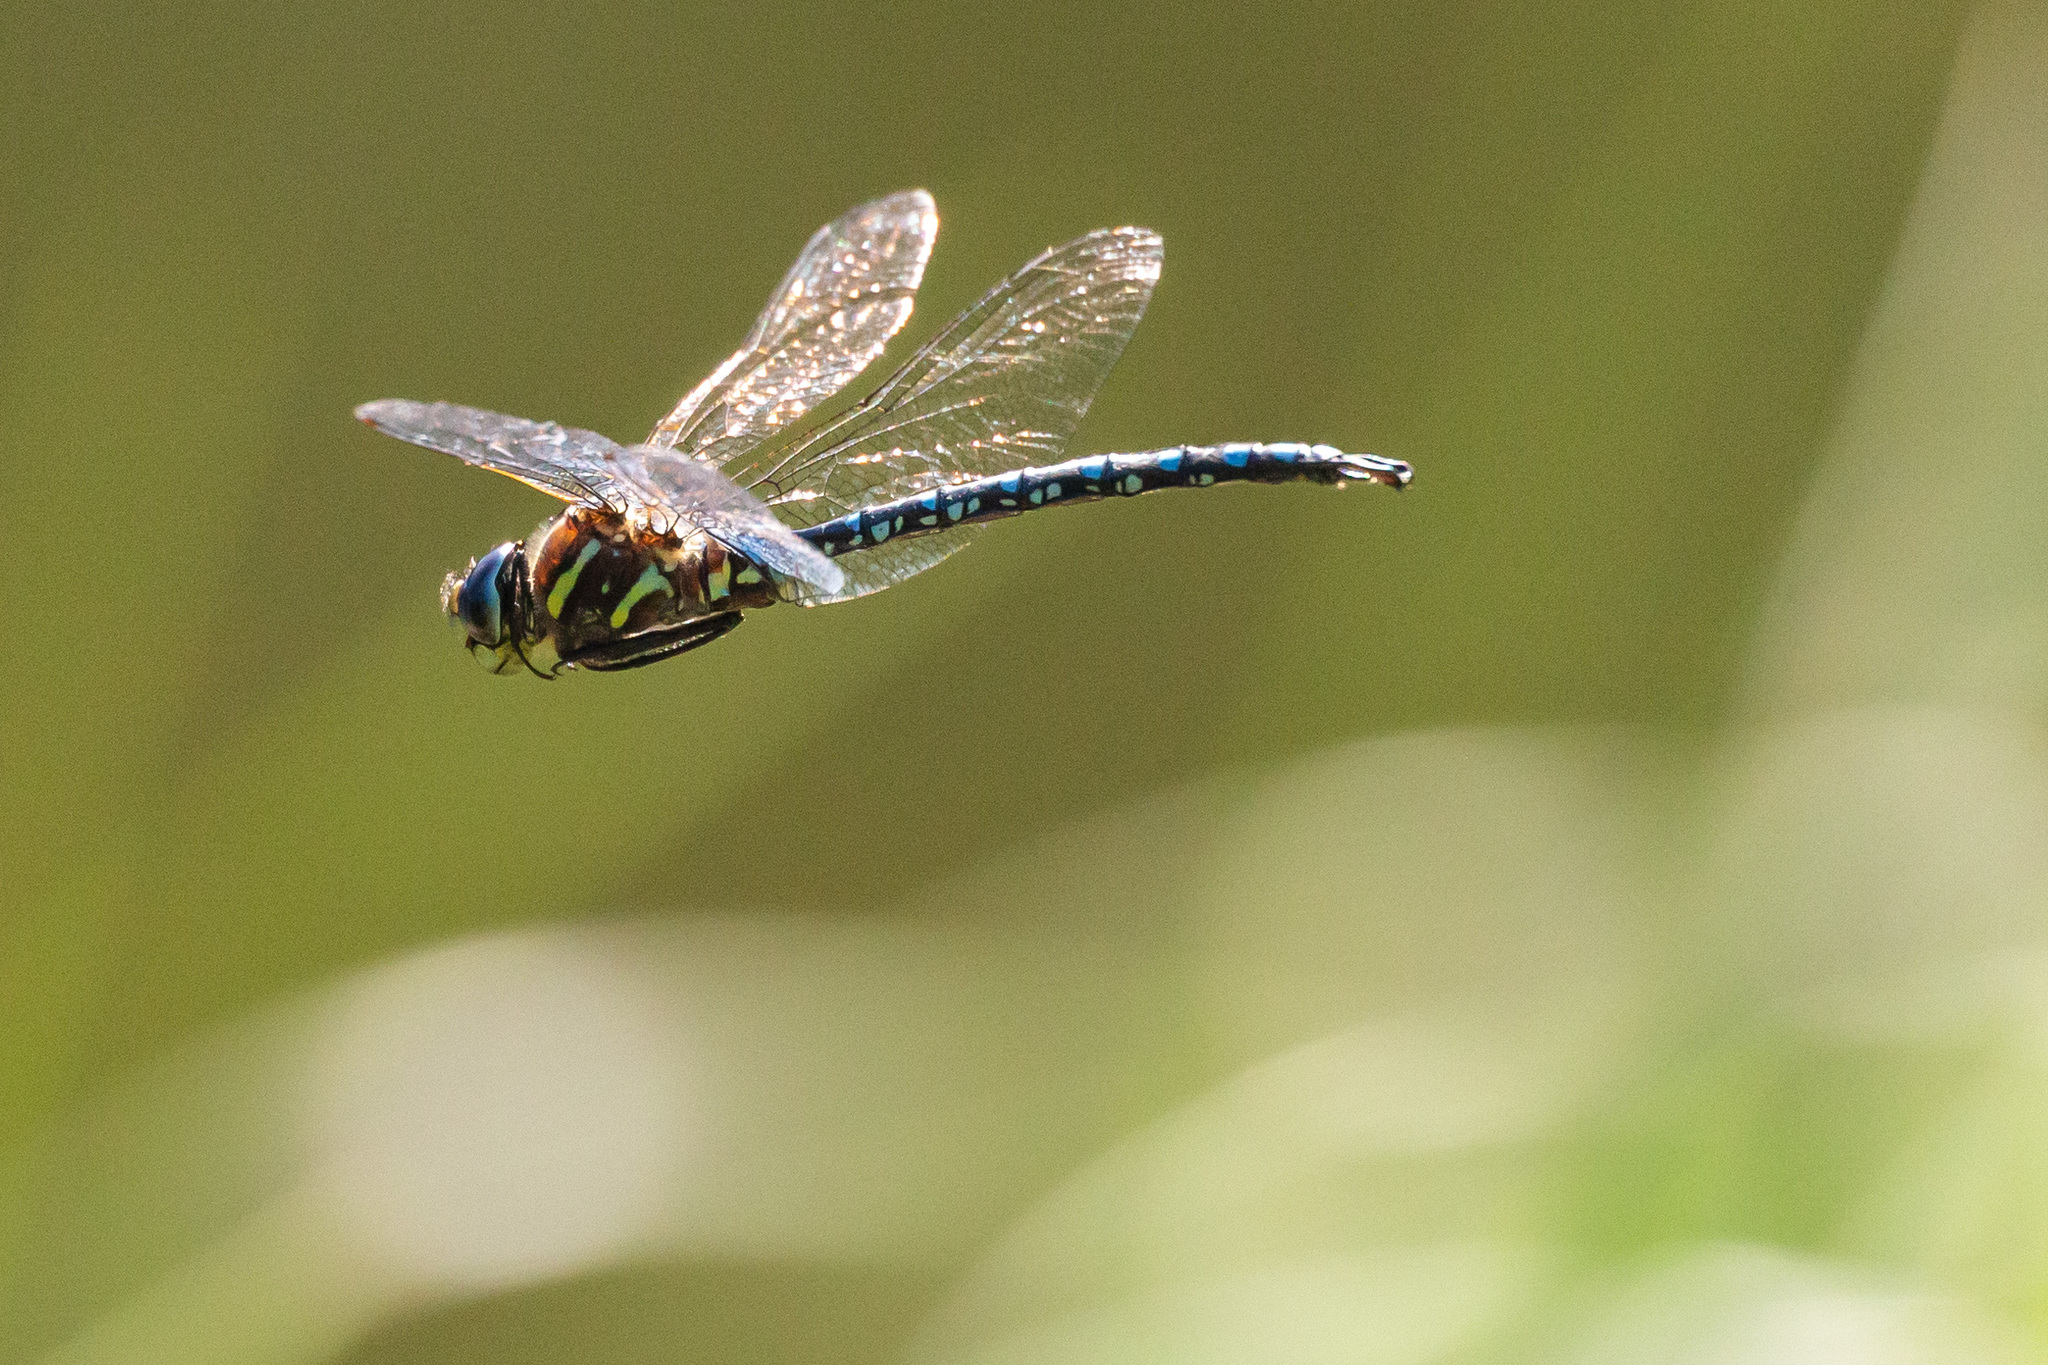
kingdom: Animalia
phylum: Arthropoda
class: Insecta
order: Odonata
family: Aeshnidae
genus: Aeshna
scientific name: Aeshna palmata
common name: Paddle-tailed darner
